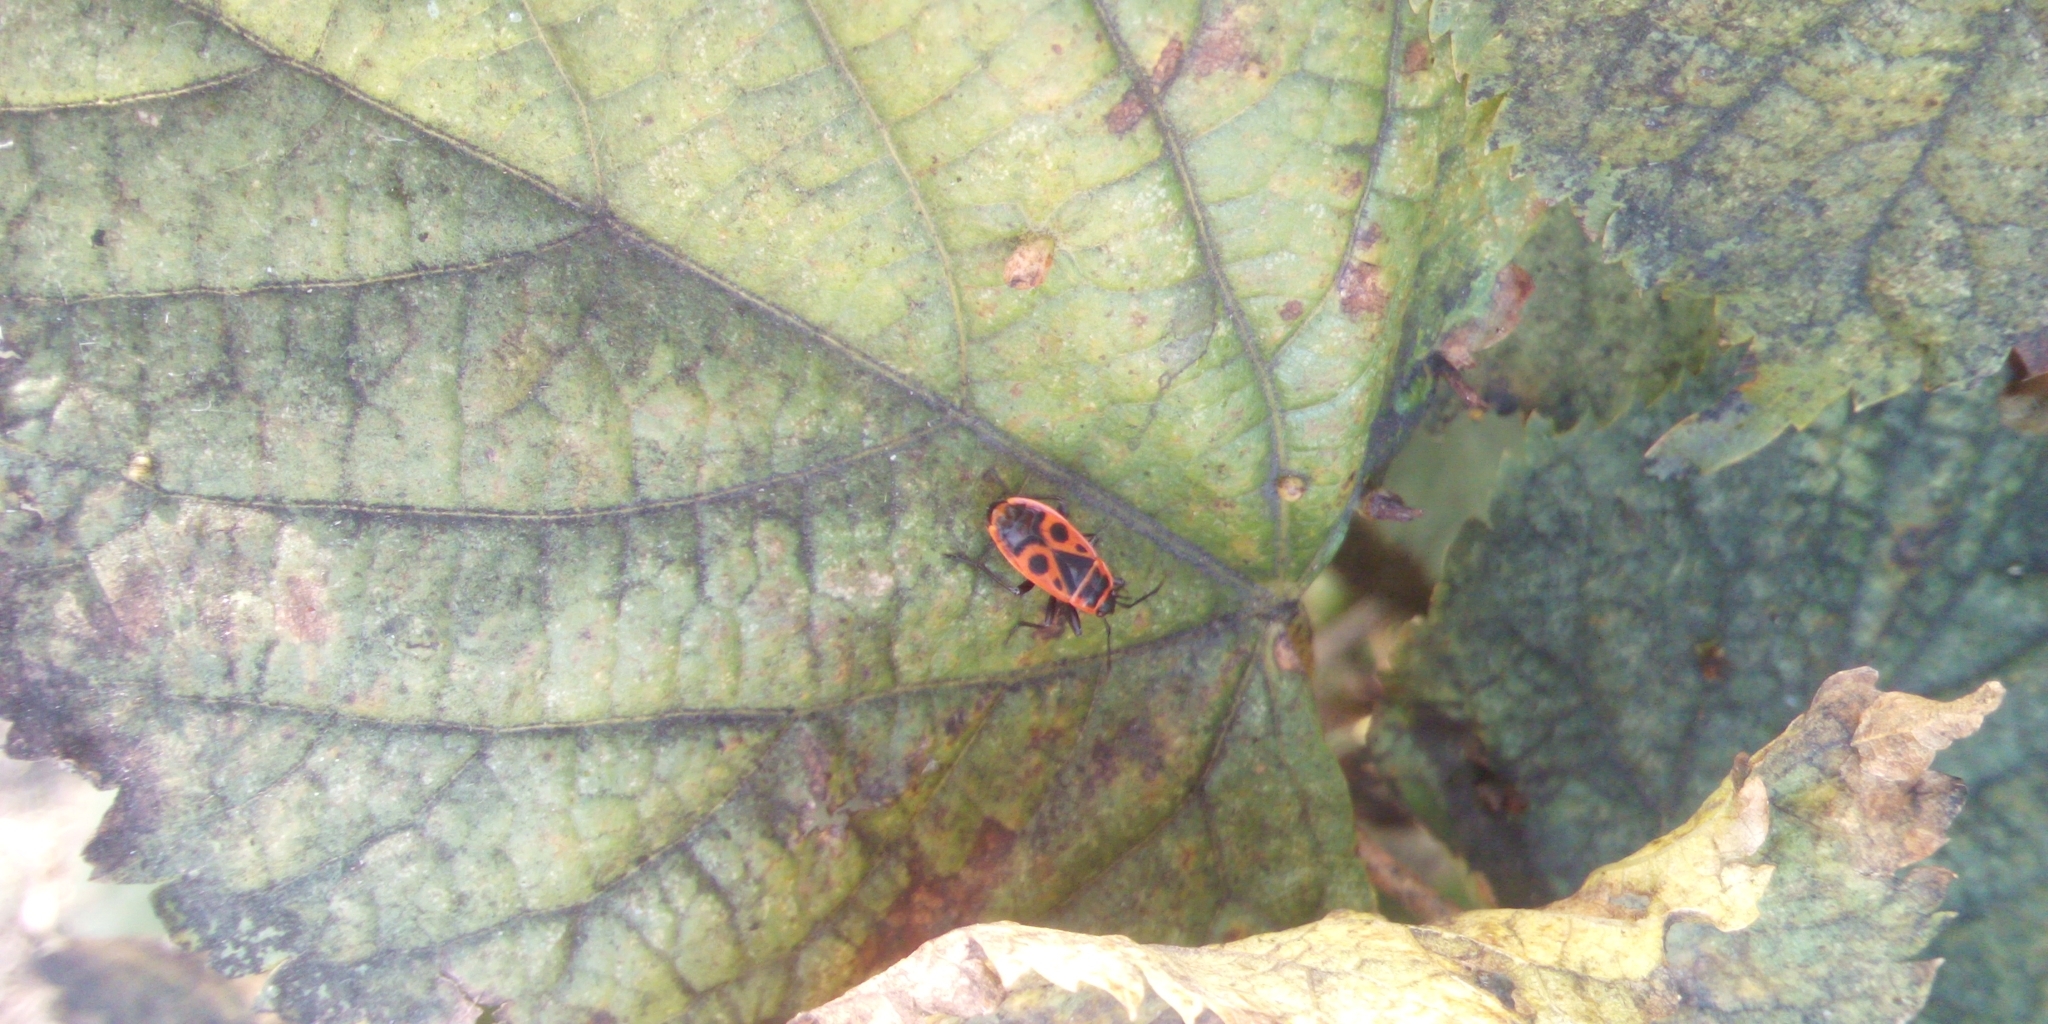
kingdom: Animalia
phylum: Arthropoda
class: Insecta
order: Hemiptera
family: Pyrrhocoridae
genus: Pyrrhocoris
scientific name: Pyrrhocoris apterus
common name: Firebug
